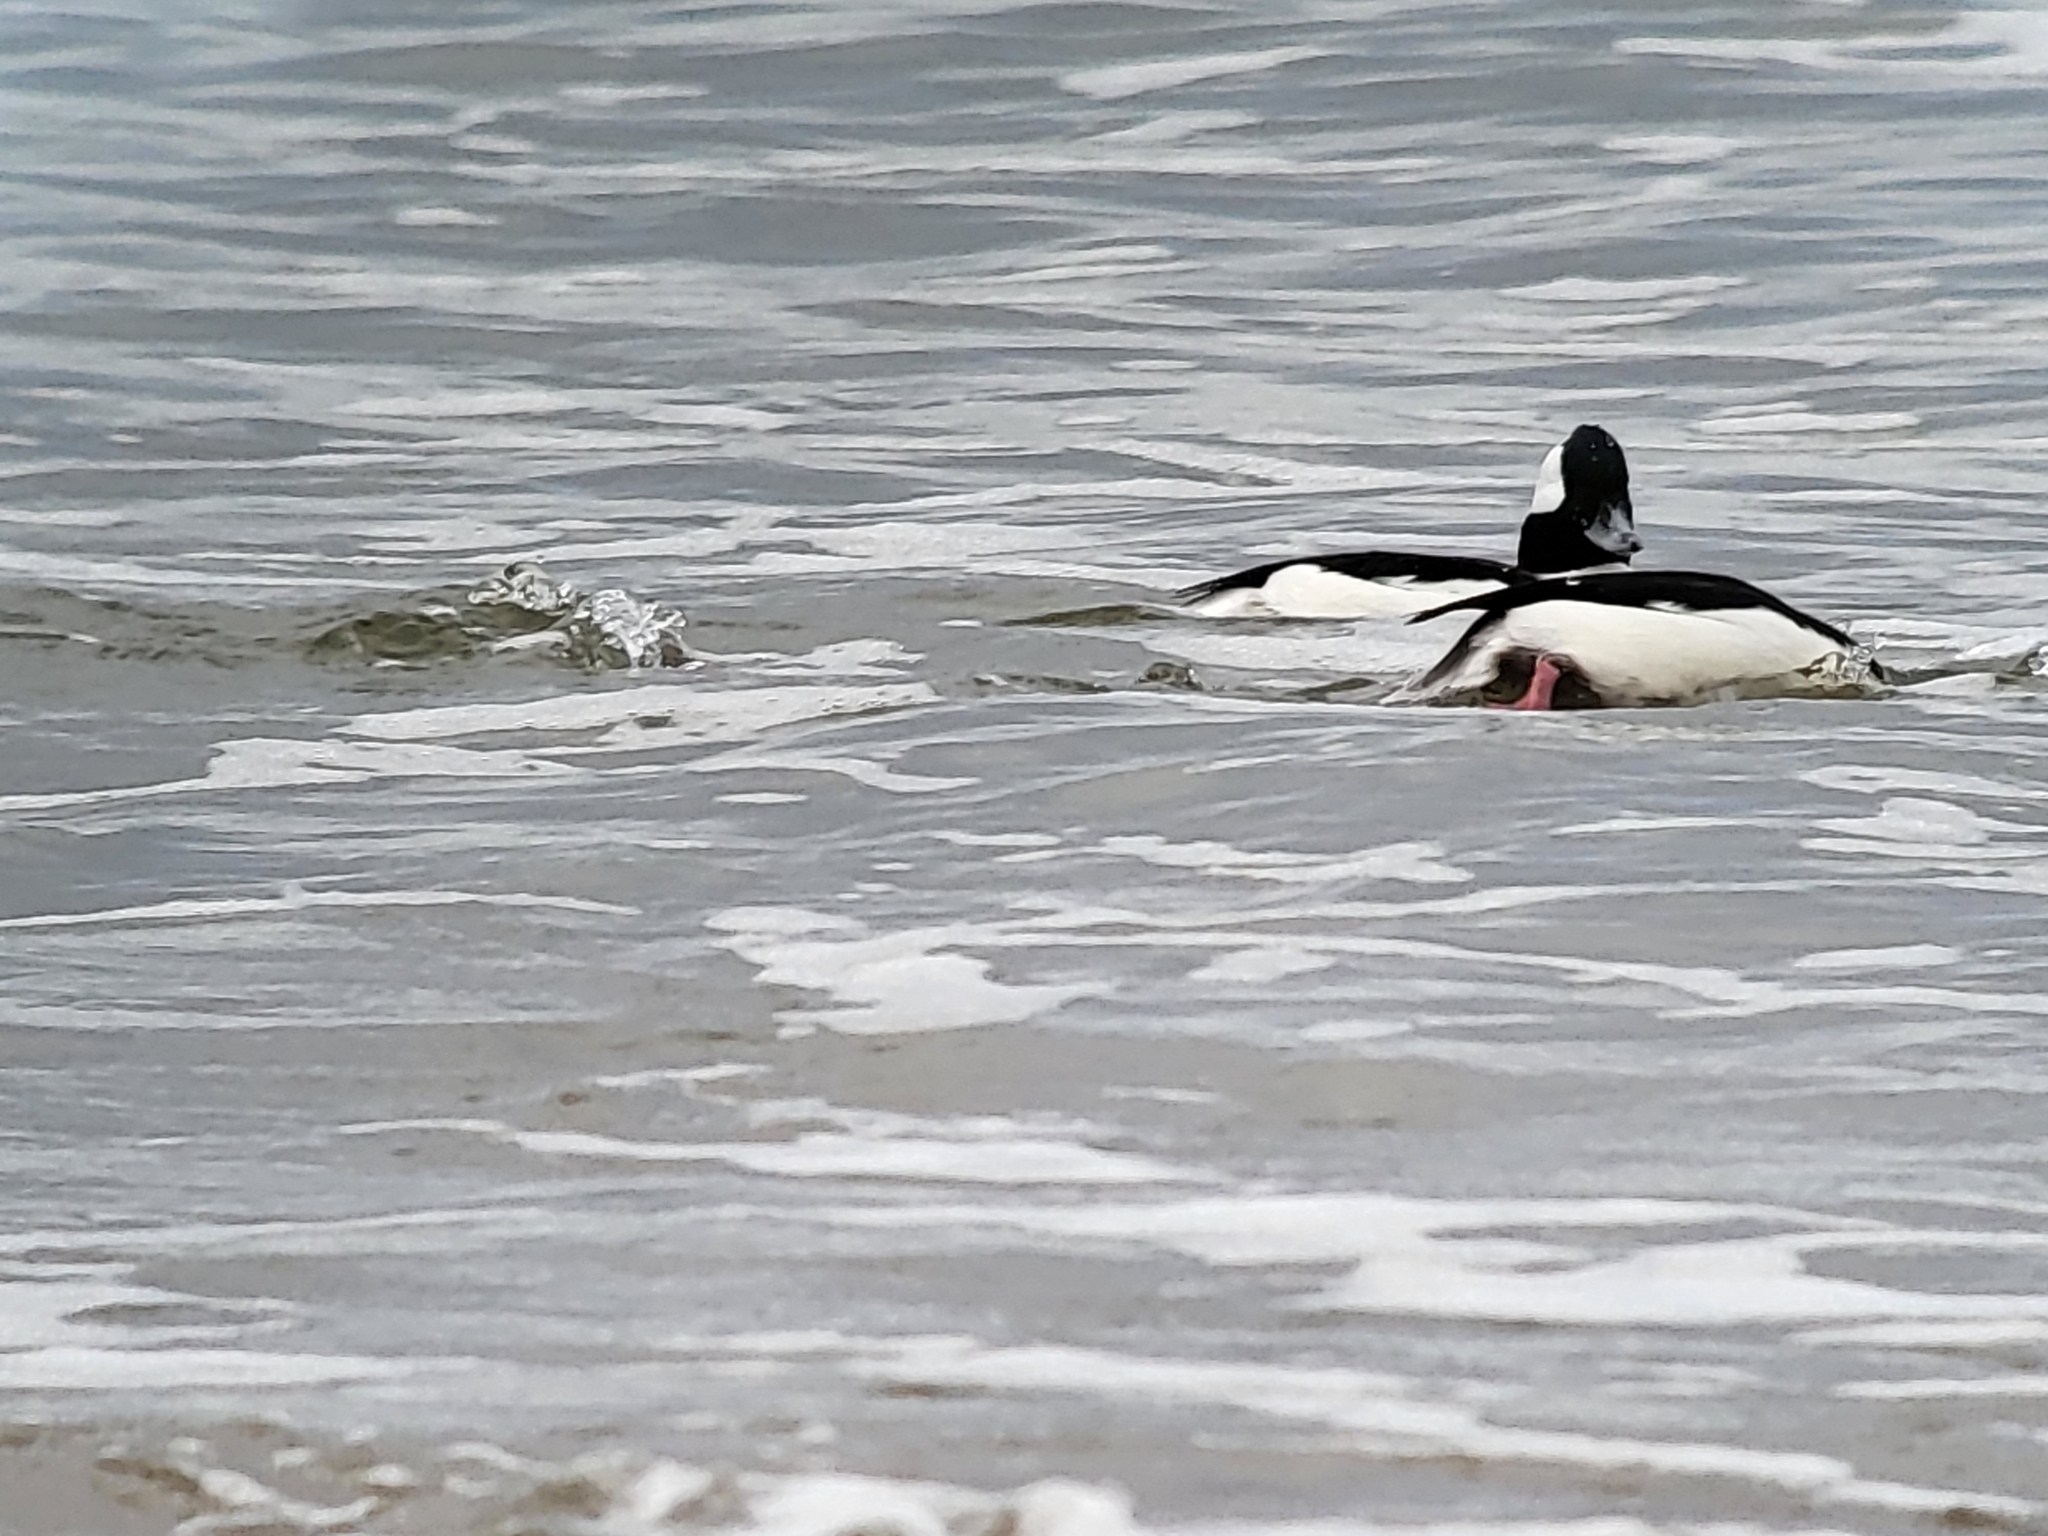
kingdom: Animalia
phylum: Chordata
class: Aves
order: Anseriformes
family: Anatidae
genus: Bucephala
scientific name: Bucephala albeola
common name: Bufflehead
